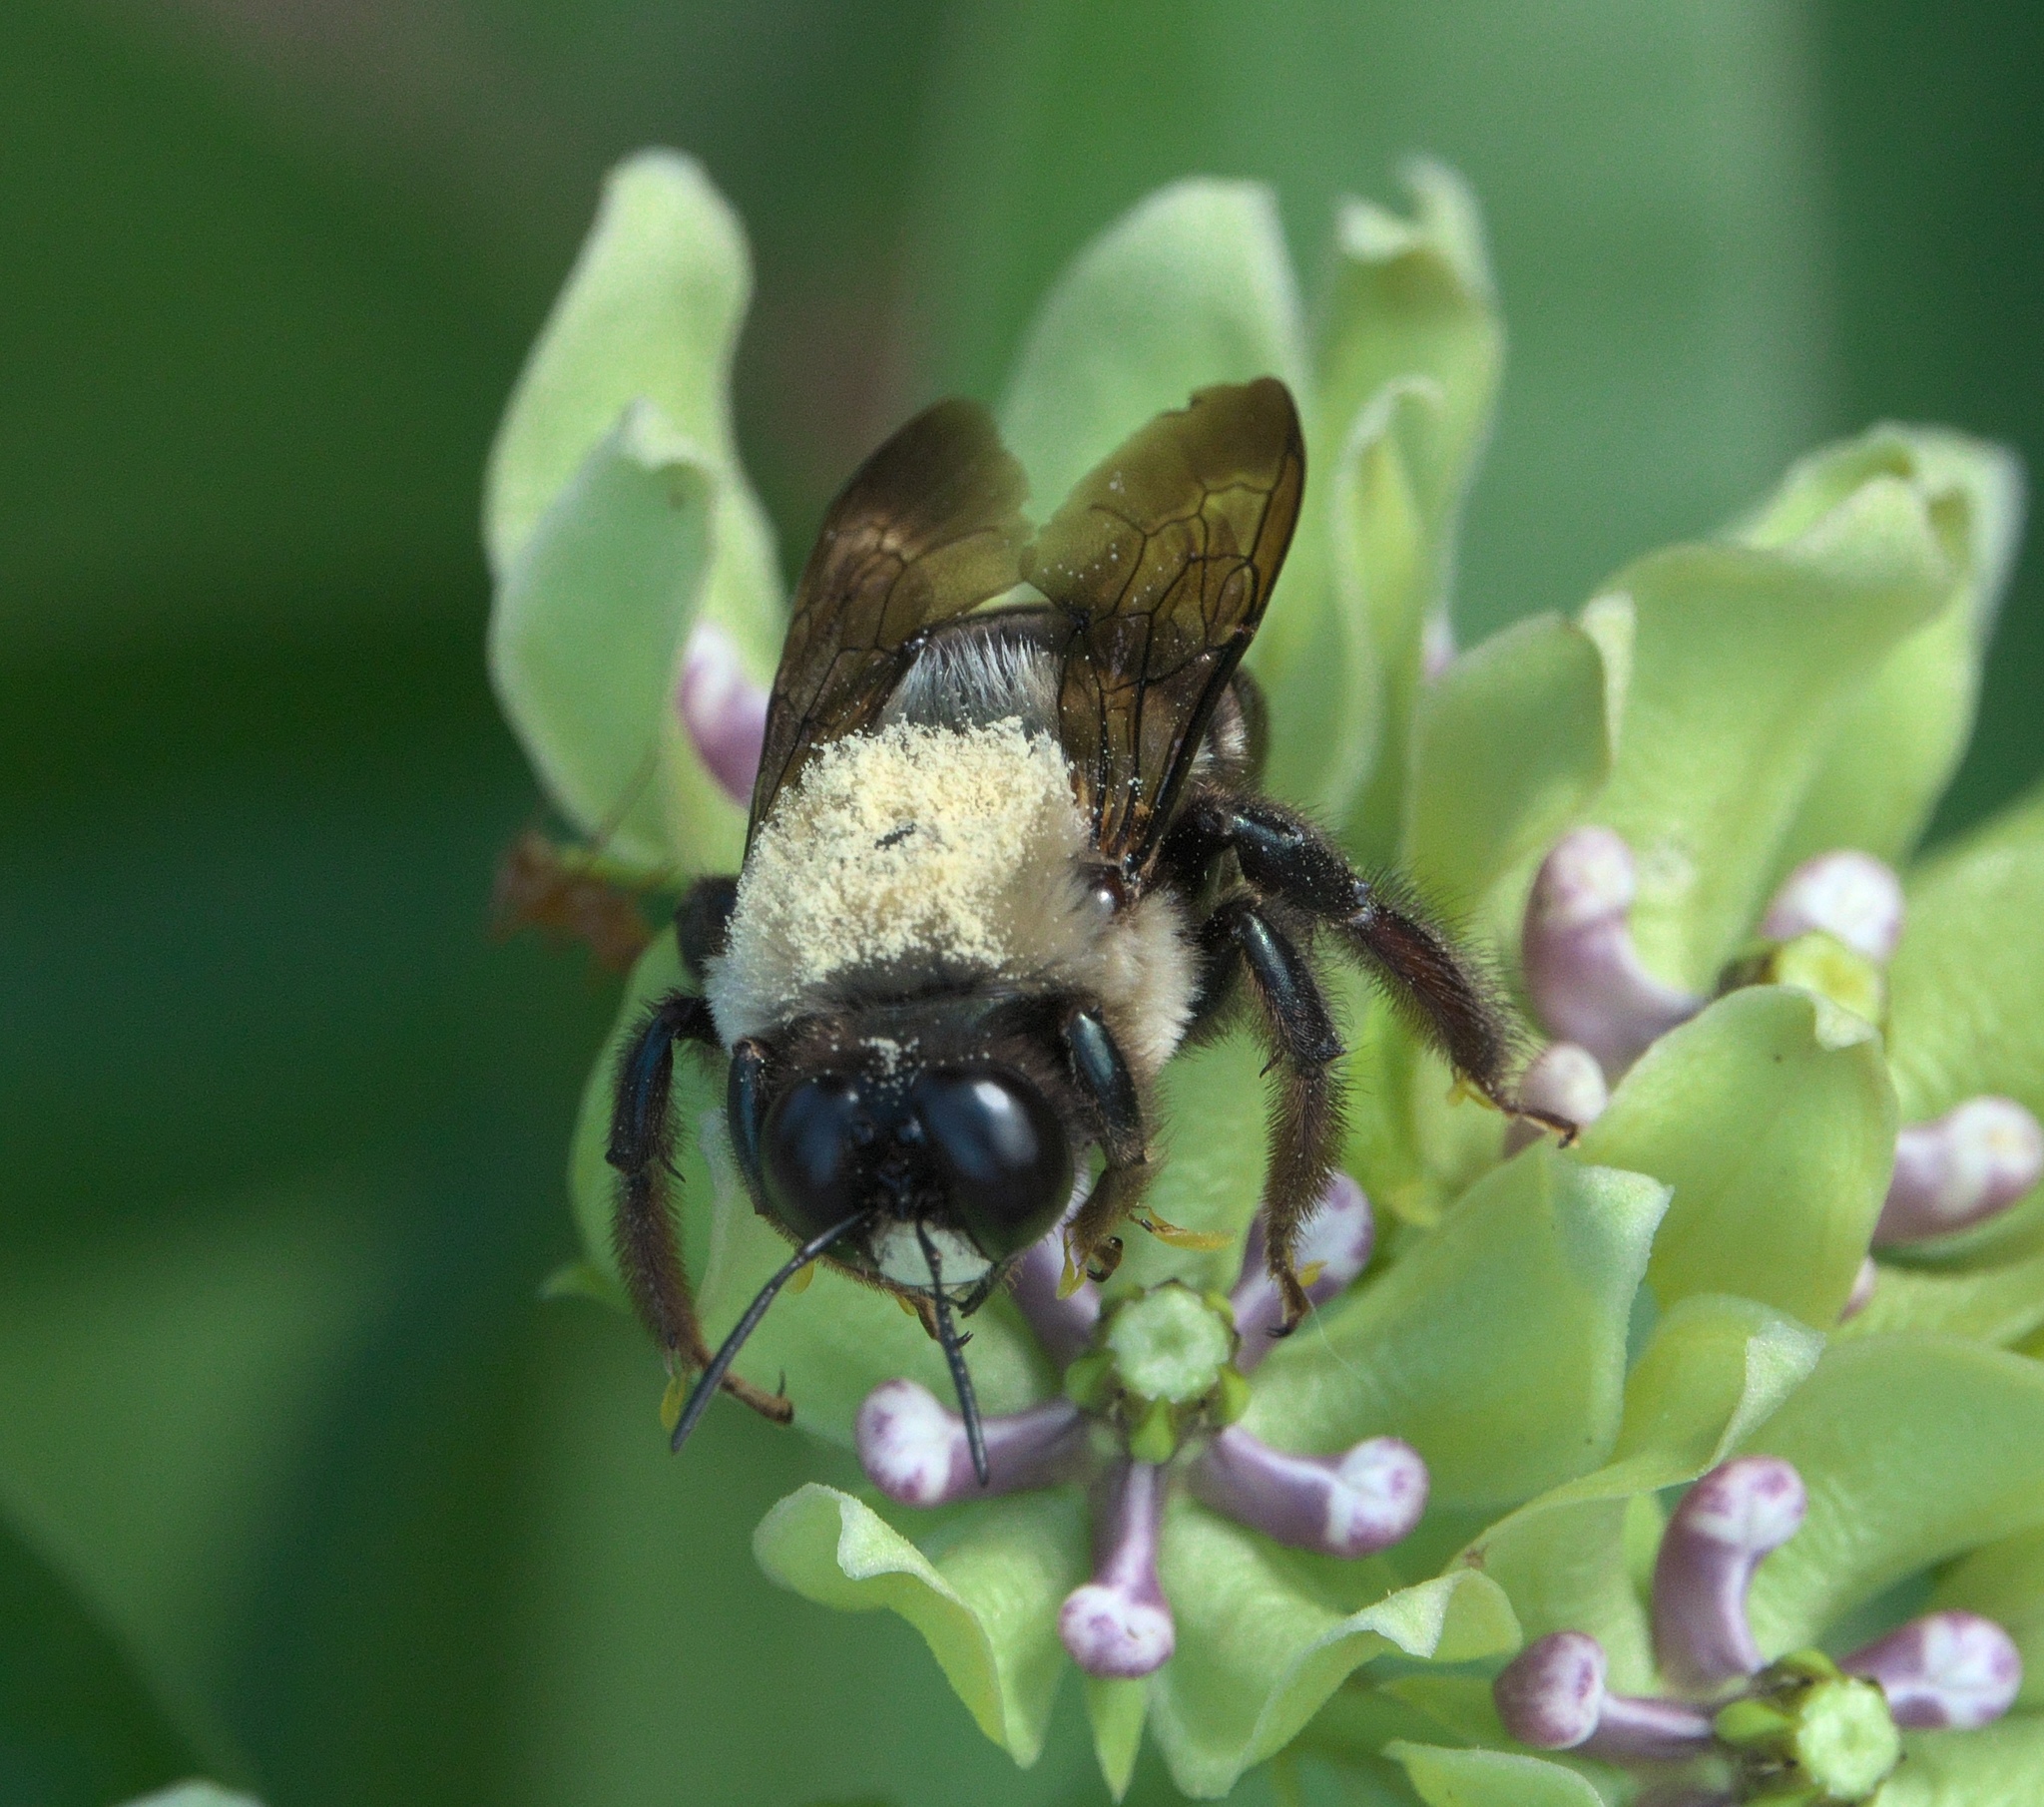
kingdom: Animalia
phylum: Arthropoda
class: Insecta
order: Hymenoptera
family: Apidae
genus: Xylocopa
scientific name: Xylocopa virginica
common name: Carpenter bee
